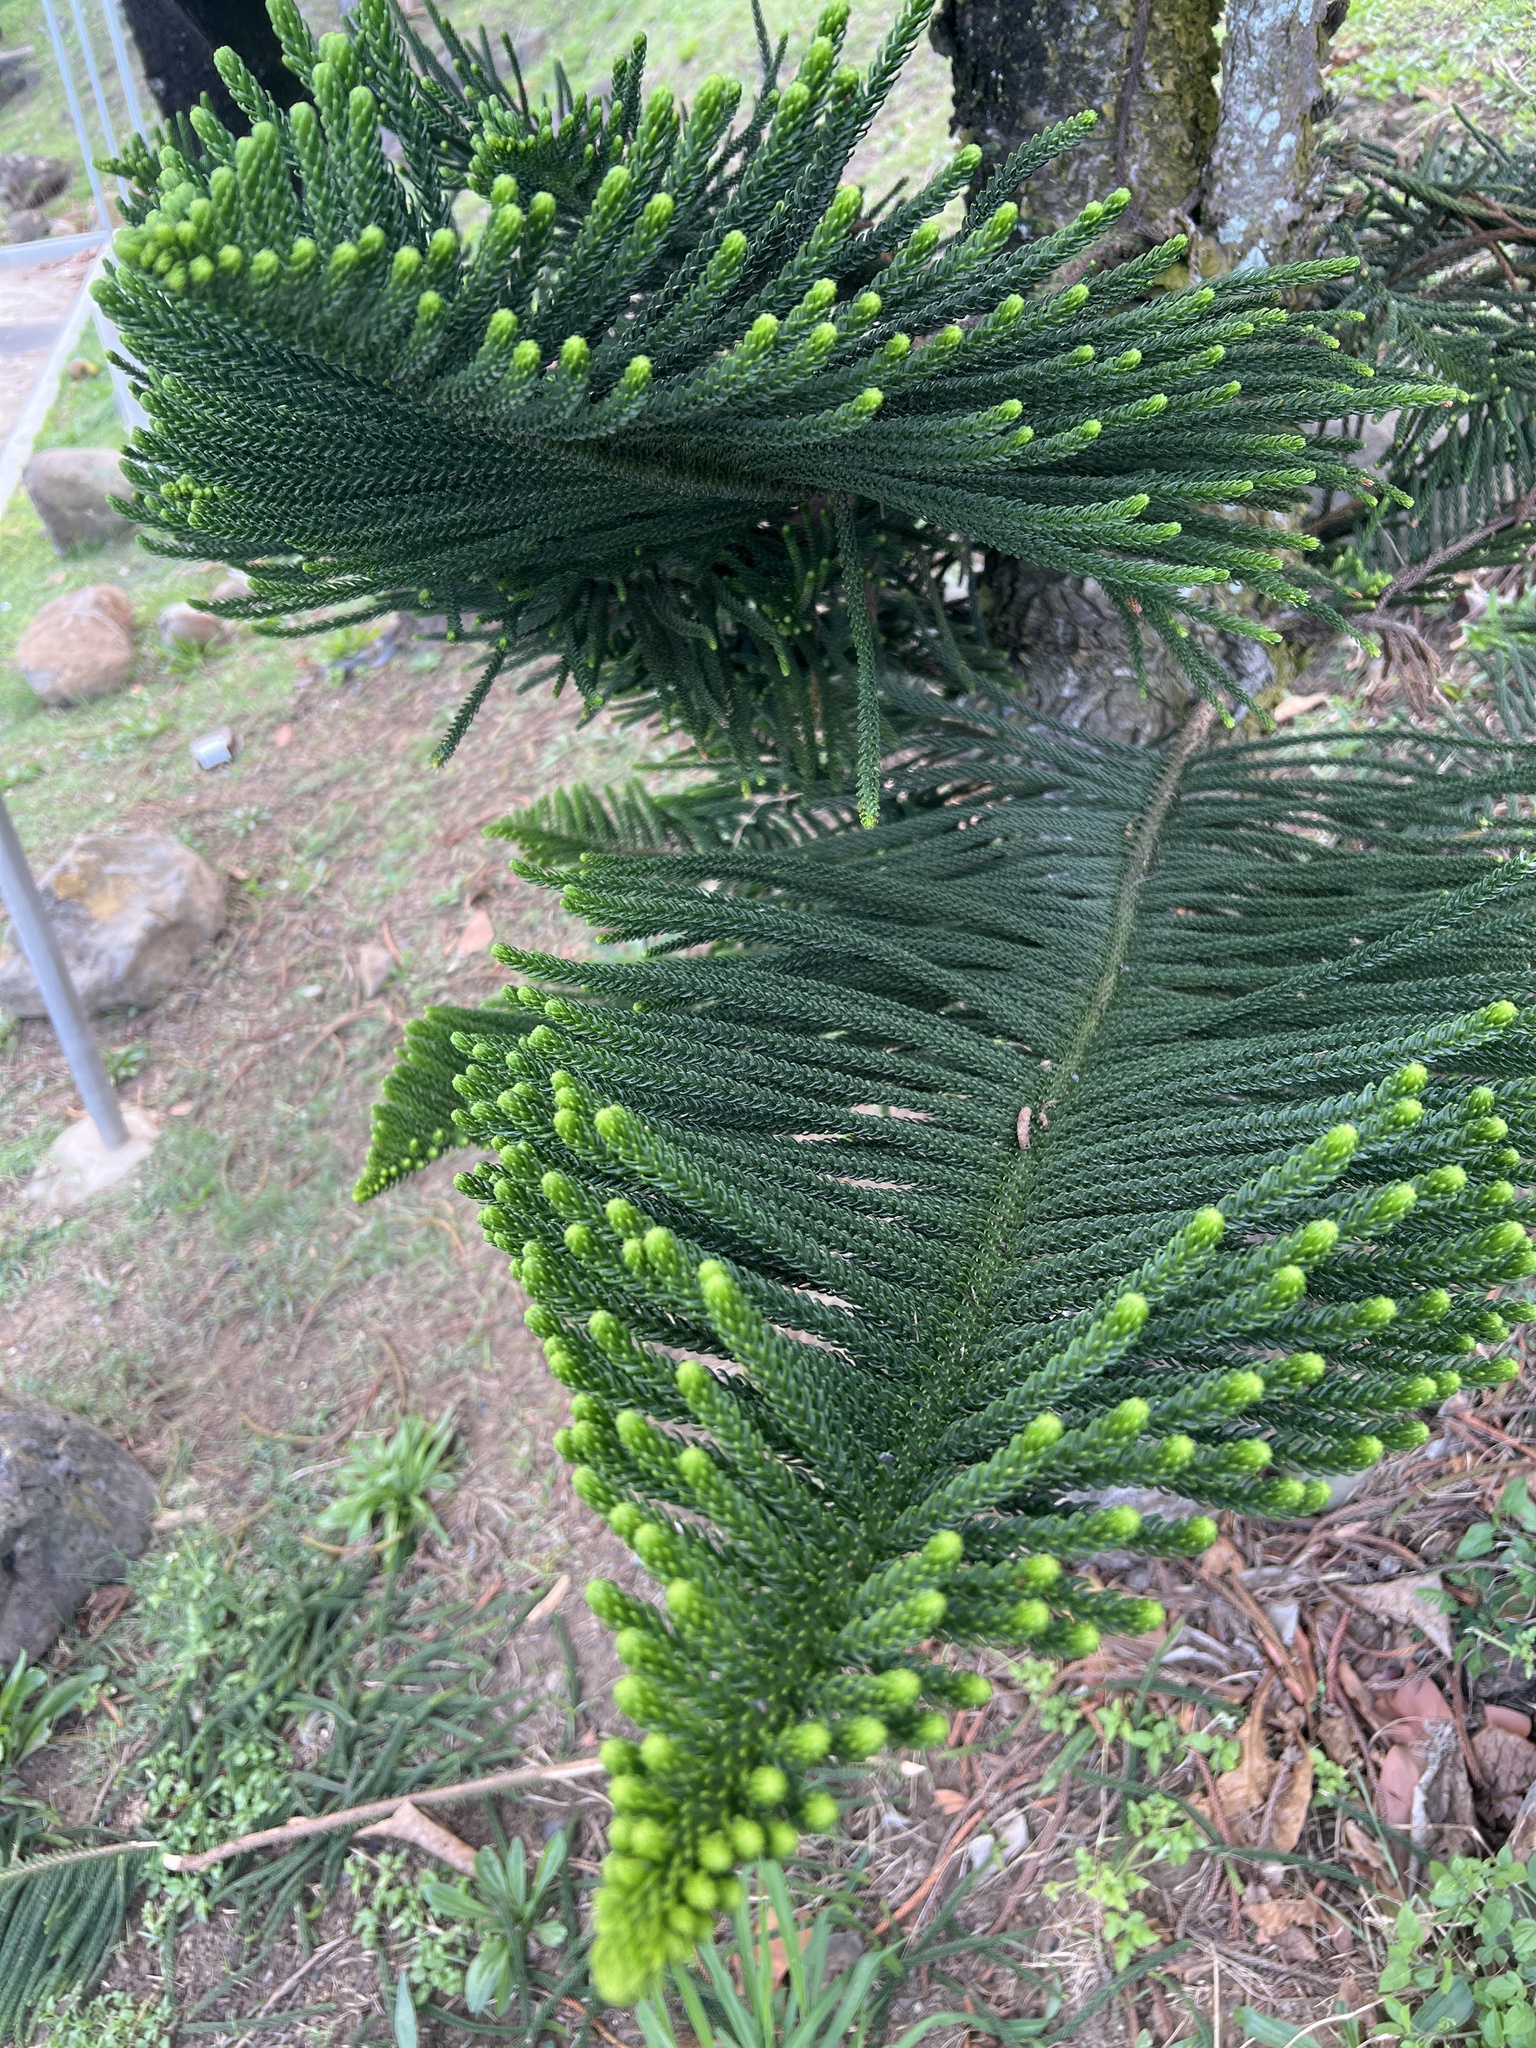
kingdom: Plantae
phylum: Tracheophyta
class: Pinopsida
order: Pinales
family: Araucariaceae
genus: Araucaria
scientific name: Araucaria columnaris
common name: Coral reef araucaria
